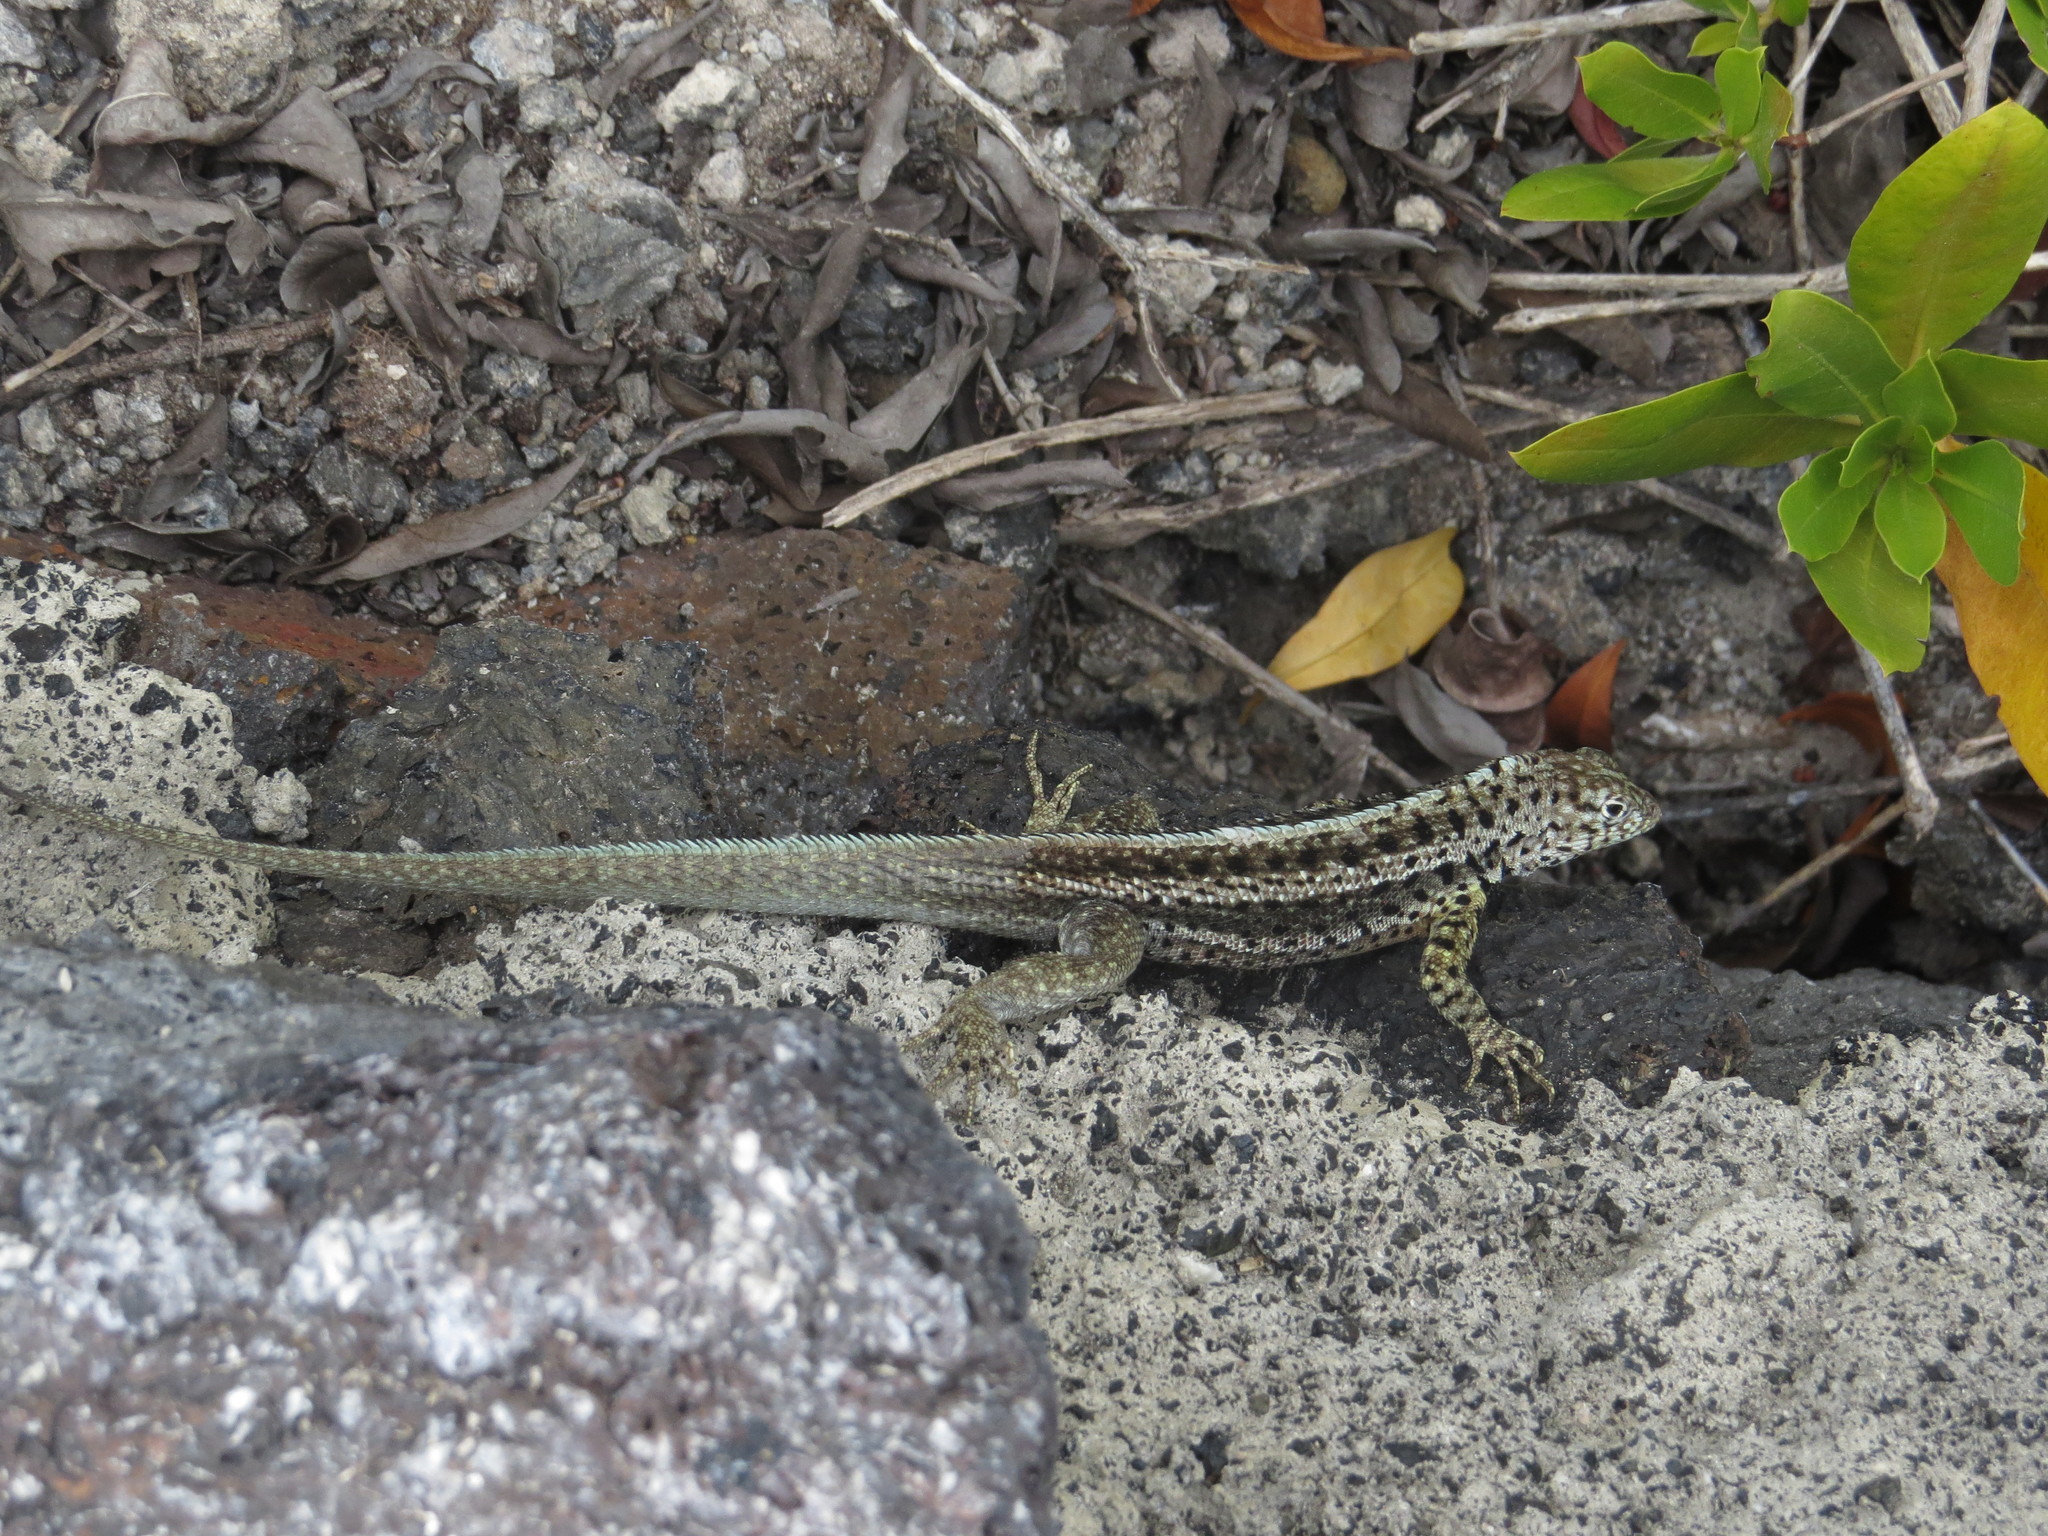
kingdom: Animalia
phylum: Chordata
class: Squamata
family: Tropiduridae
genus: Microlophus
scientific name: Microlophus albemarlensis
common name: Galapagos lava lizard
